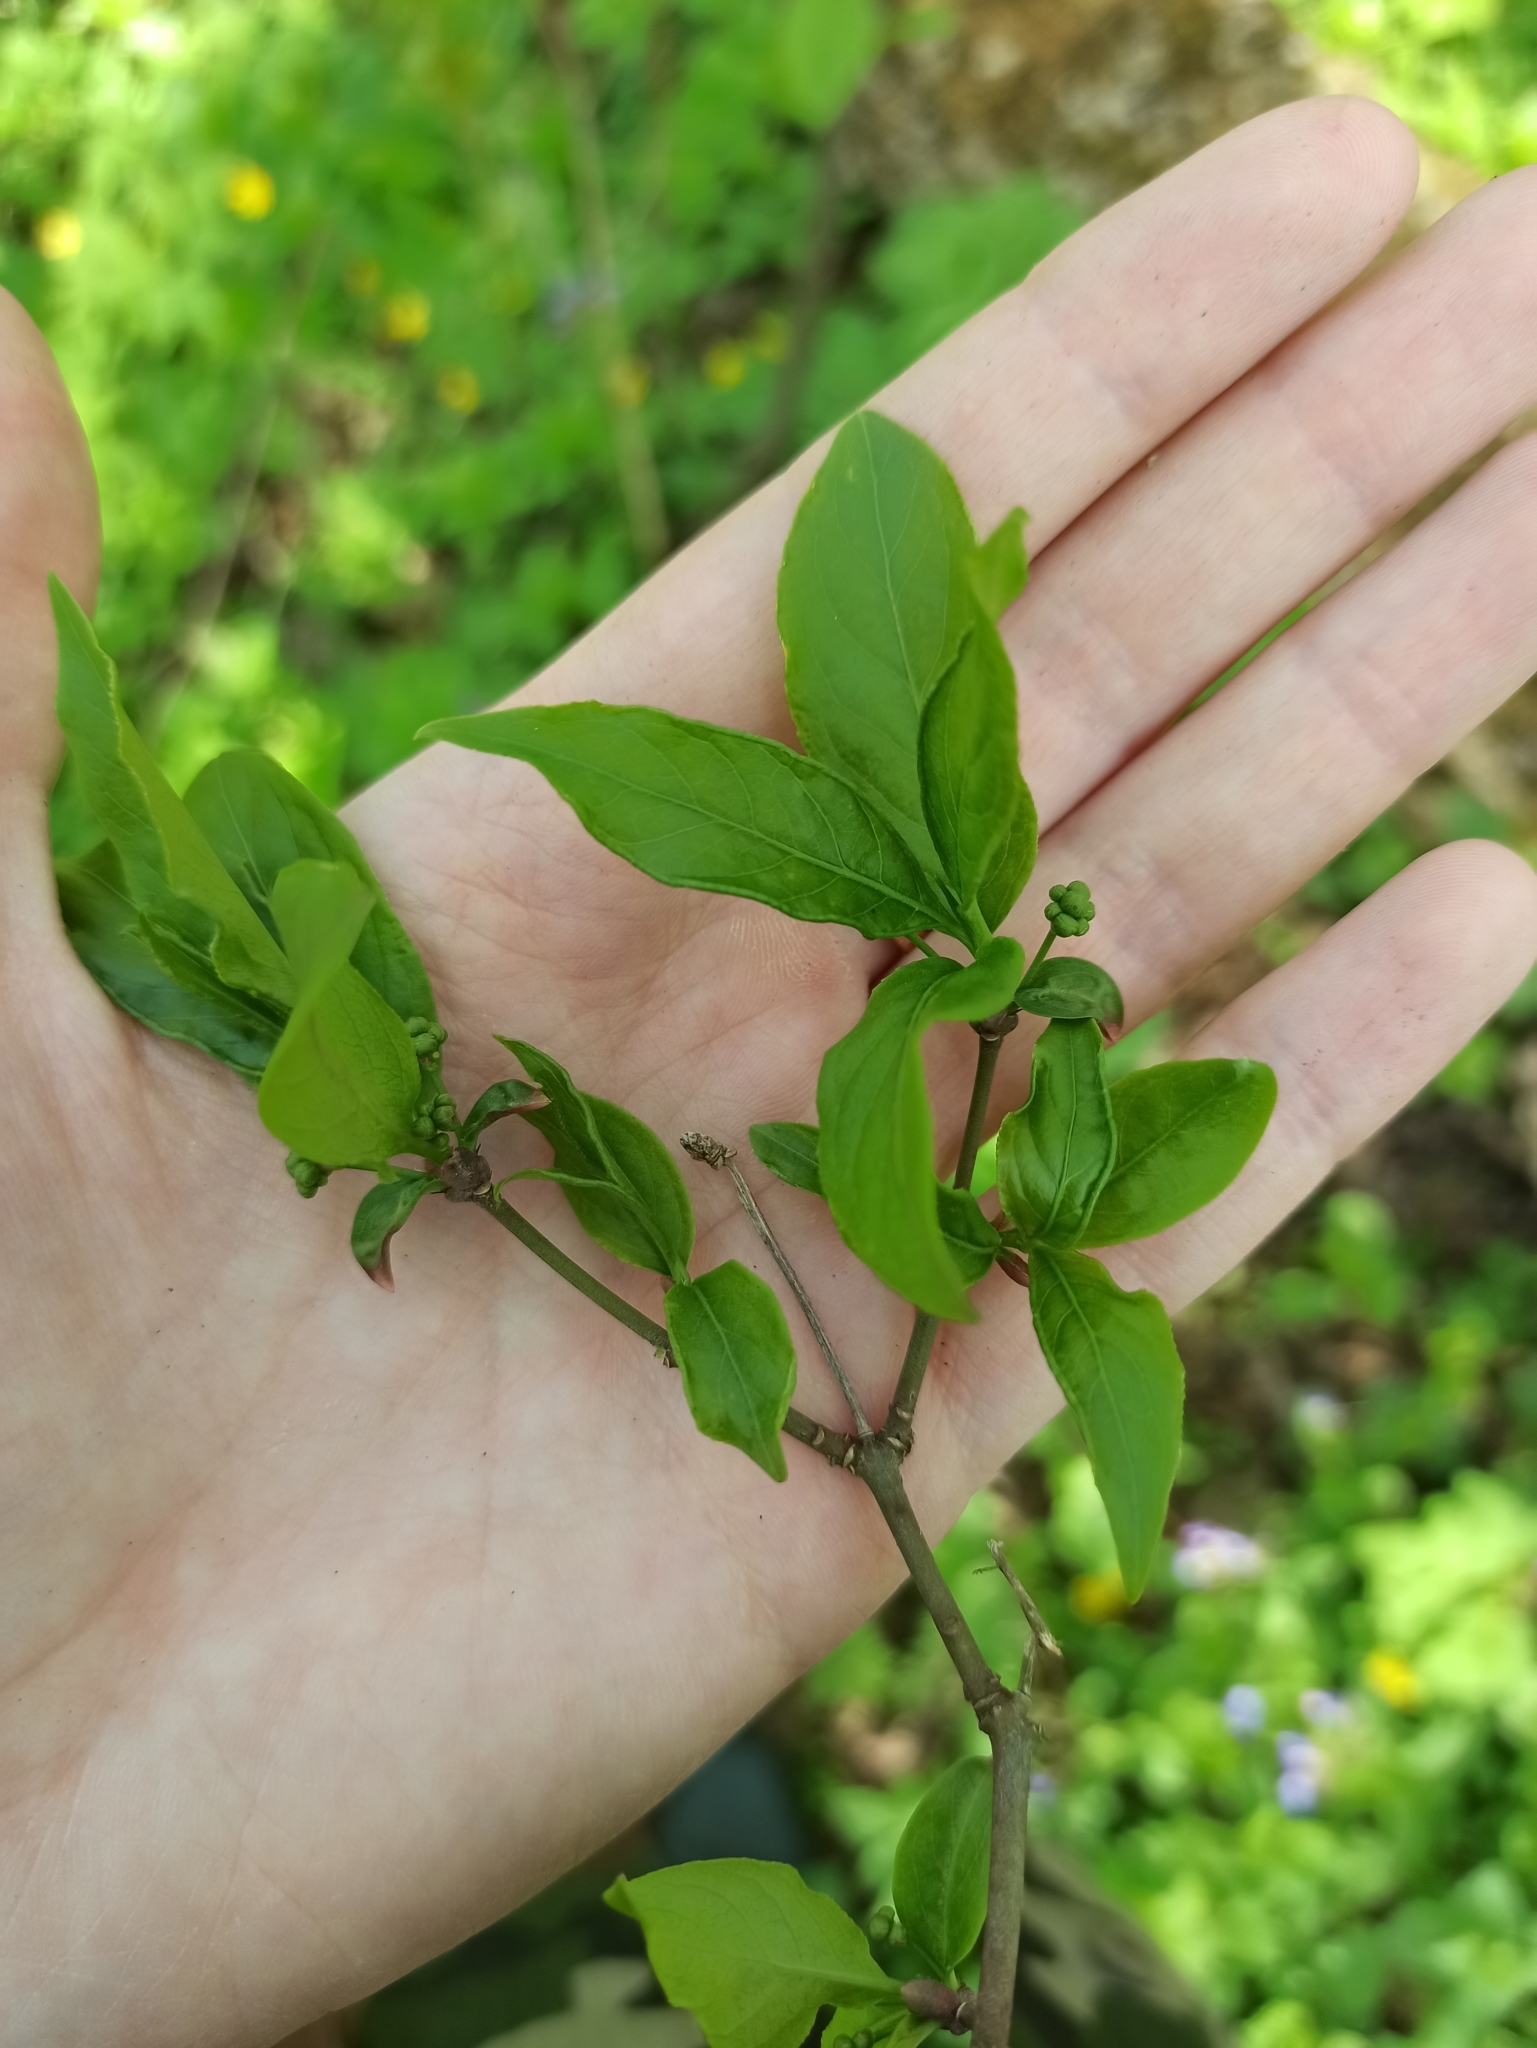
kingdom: Plantae
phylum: Tracheophyta
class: Magnoliopsida
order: Celastrales
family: Celastraceae
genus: Euonymus
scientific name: Euonymus europaeus
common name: Spindle
